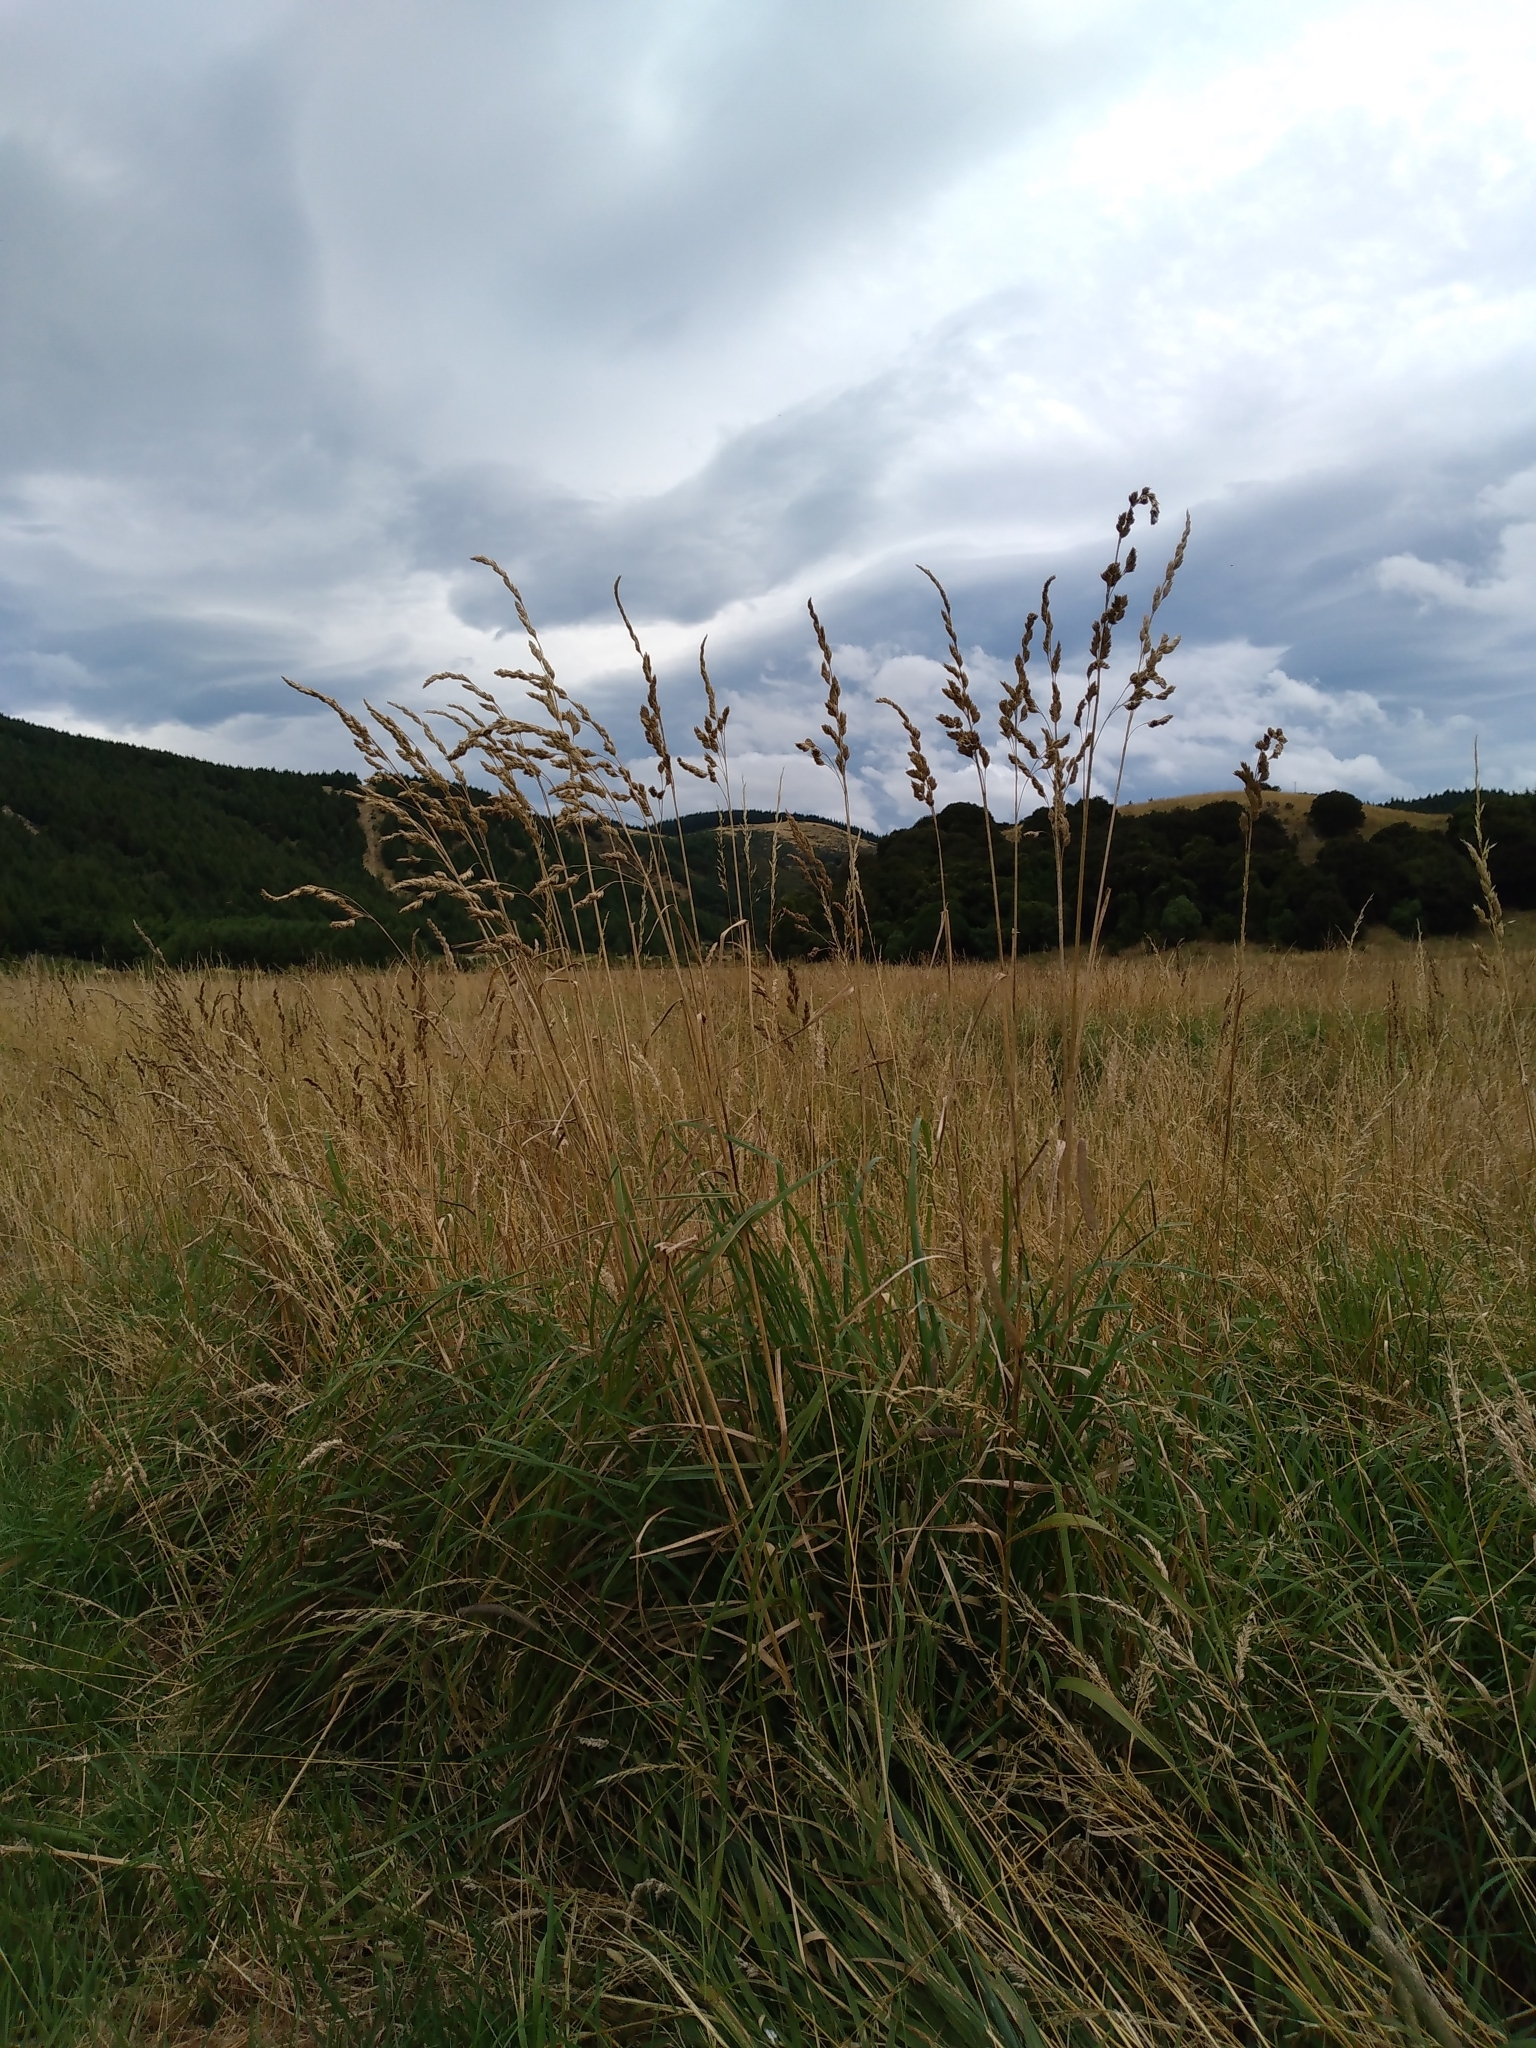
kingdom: Plantae
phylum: Tracheophyta
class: Liliopsida
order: Poales
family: Poaceae
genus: Dactylis
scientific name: Dactylis glomerata
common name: Orchardgrass
